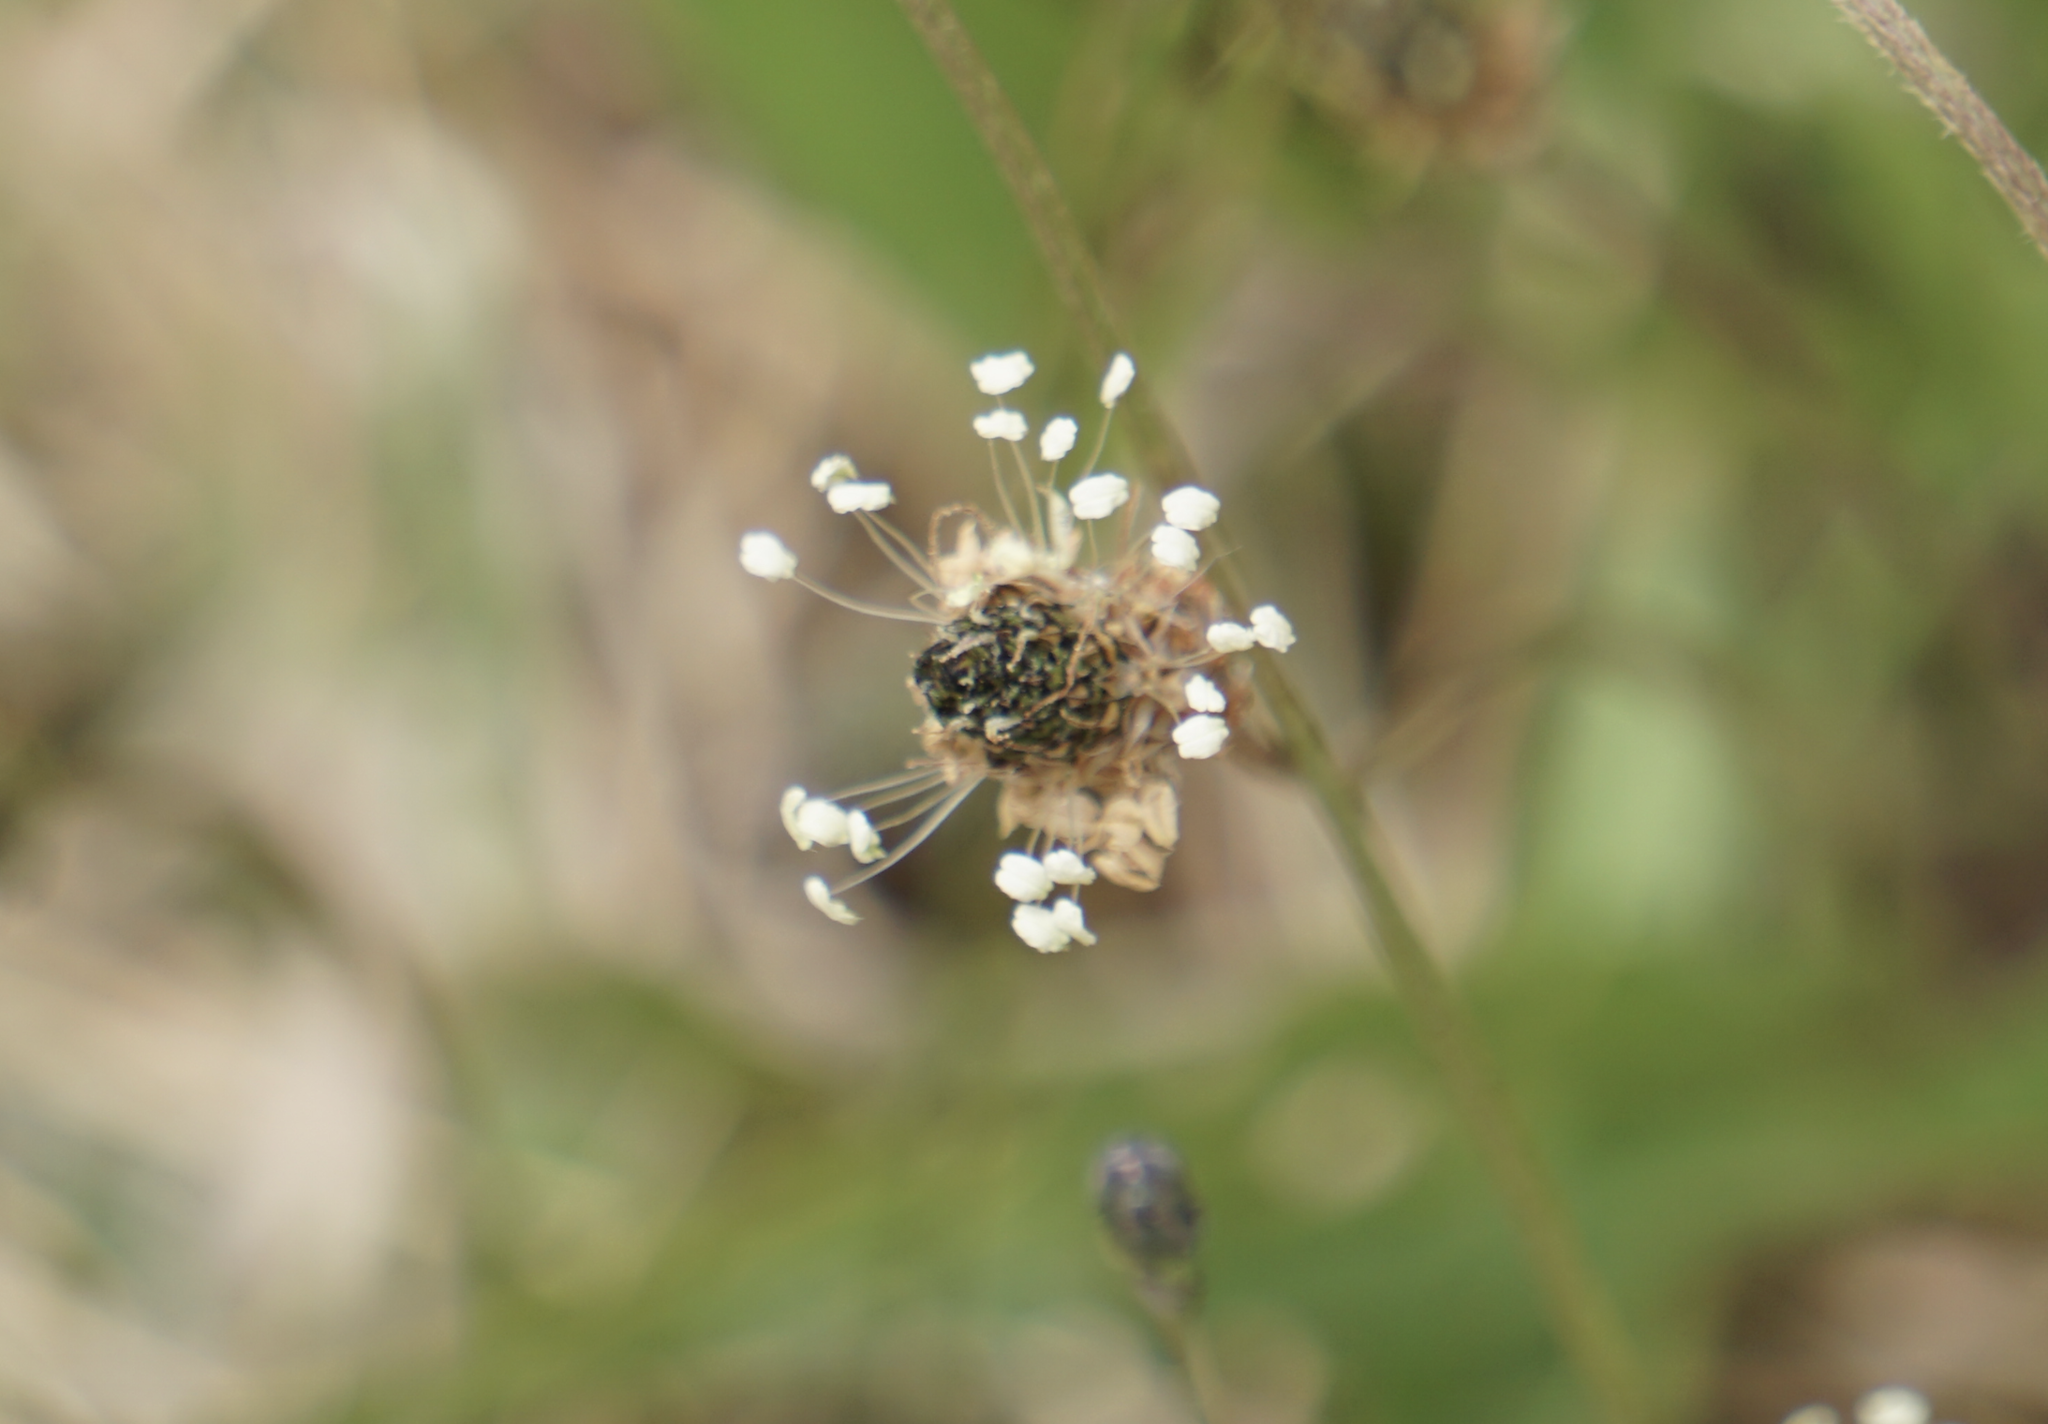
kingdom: Plantae
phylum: Tracheophyta
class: Magnoliopsida
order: Lamiales
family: Plantaginaceae
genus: Plantago
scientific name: Plantago lanceolata
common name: Ribwort plantain
